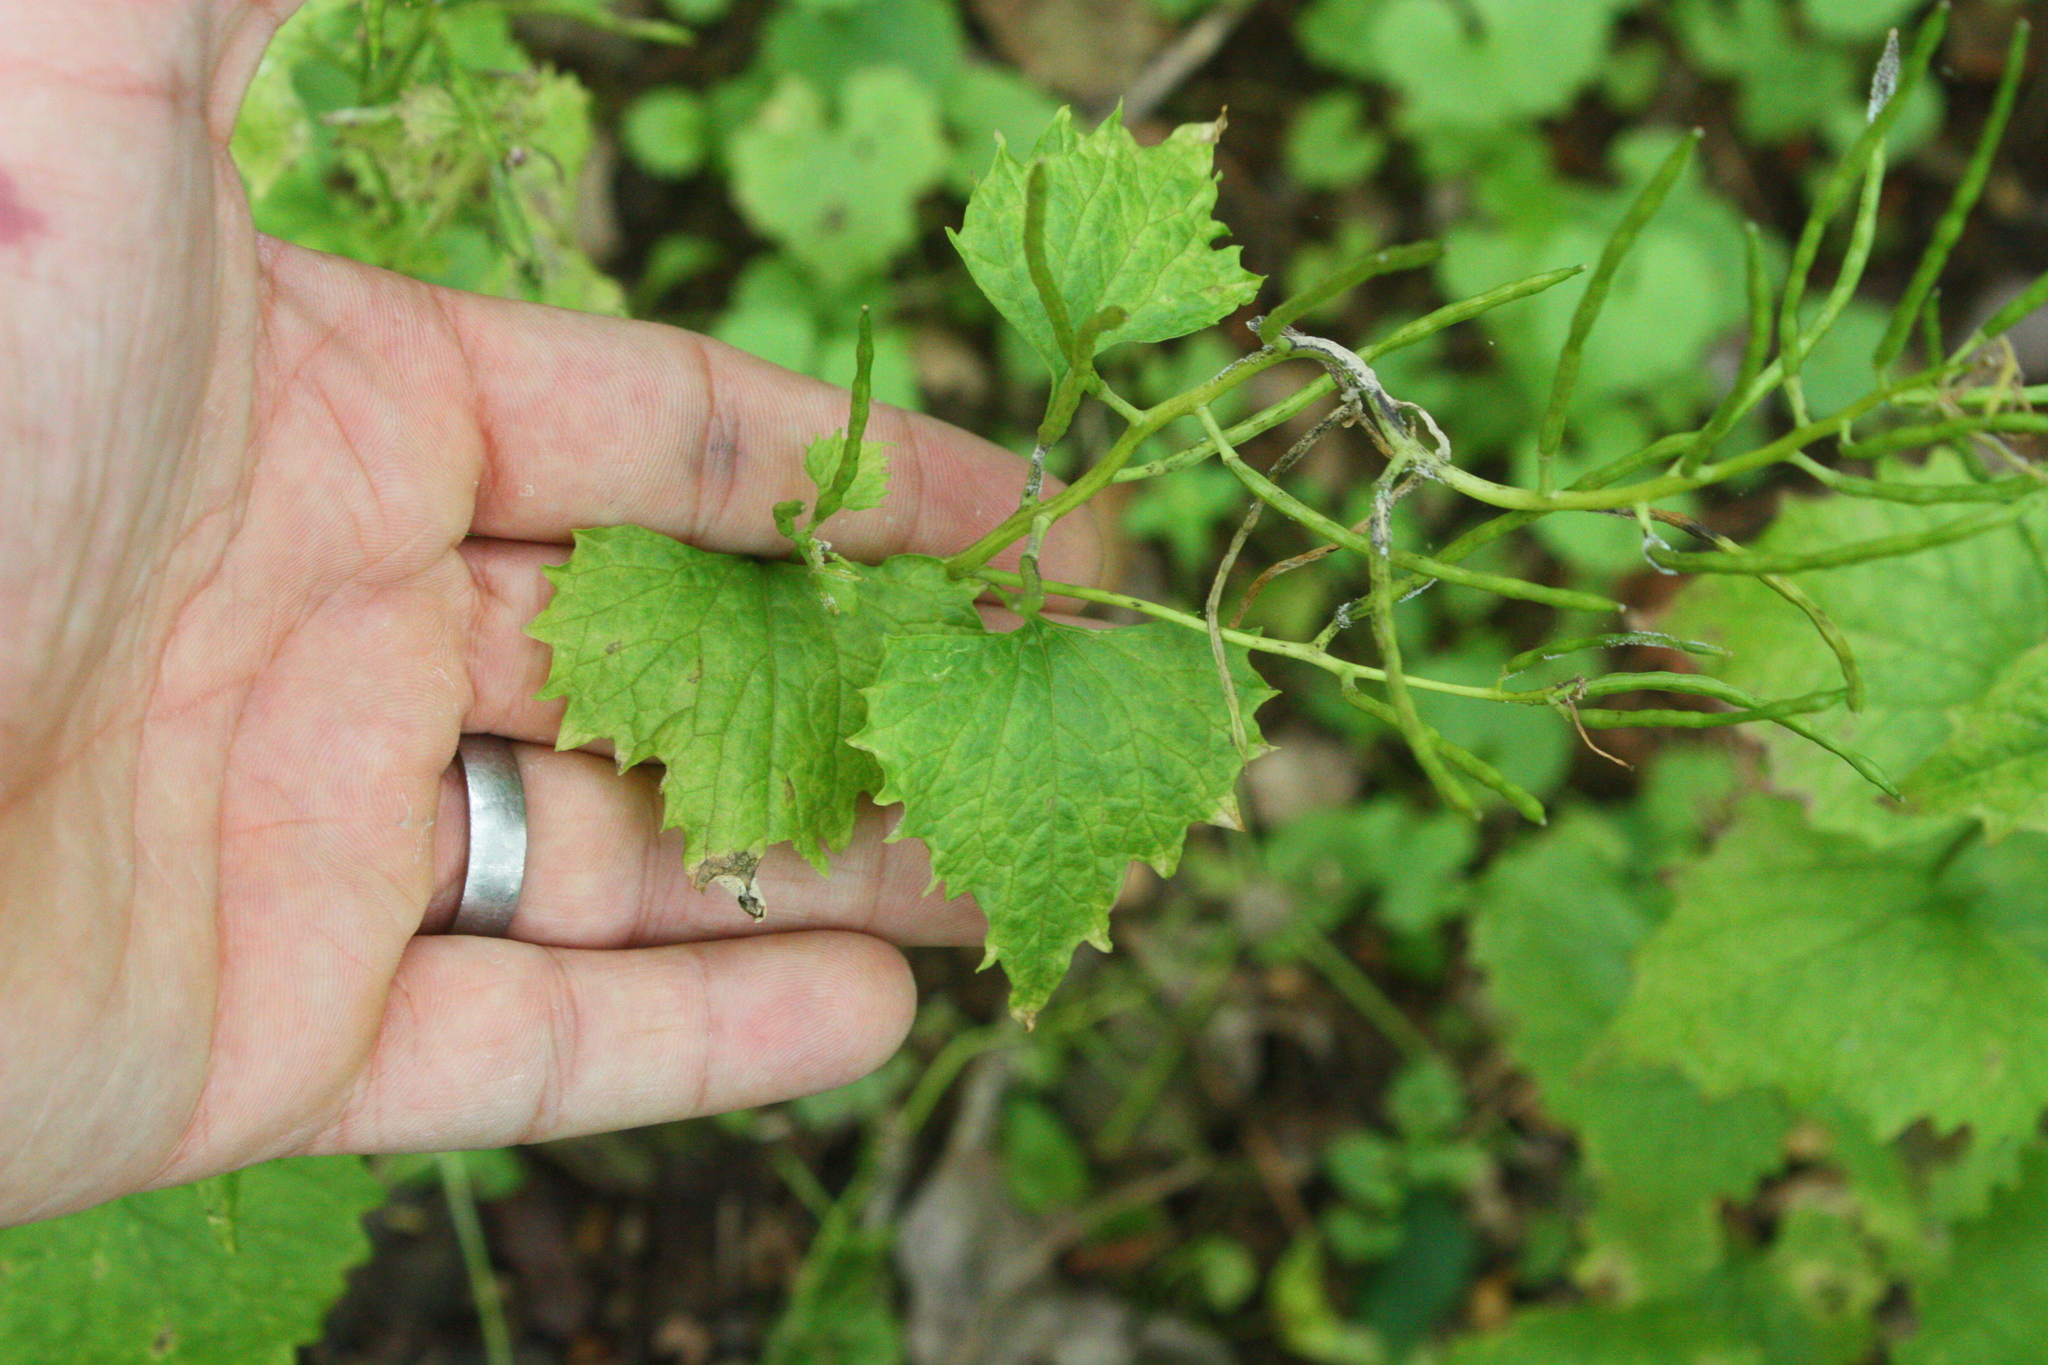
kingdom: Plantae
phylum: Tracheophyta
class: Magnoliopsida
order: Brassicales
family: Brassicaceae
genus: Alliaria
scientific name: Alliaria petiolata
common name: Garlic mustard
